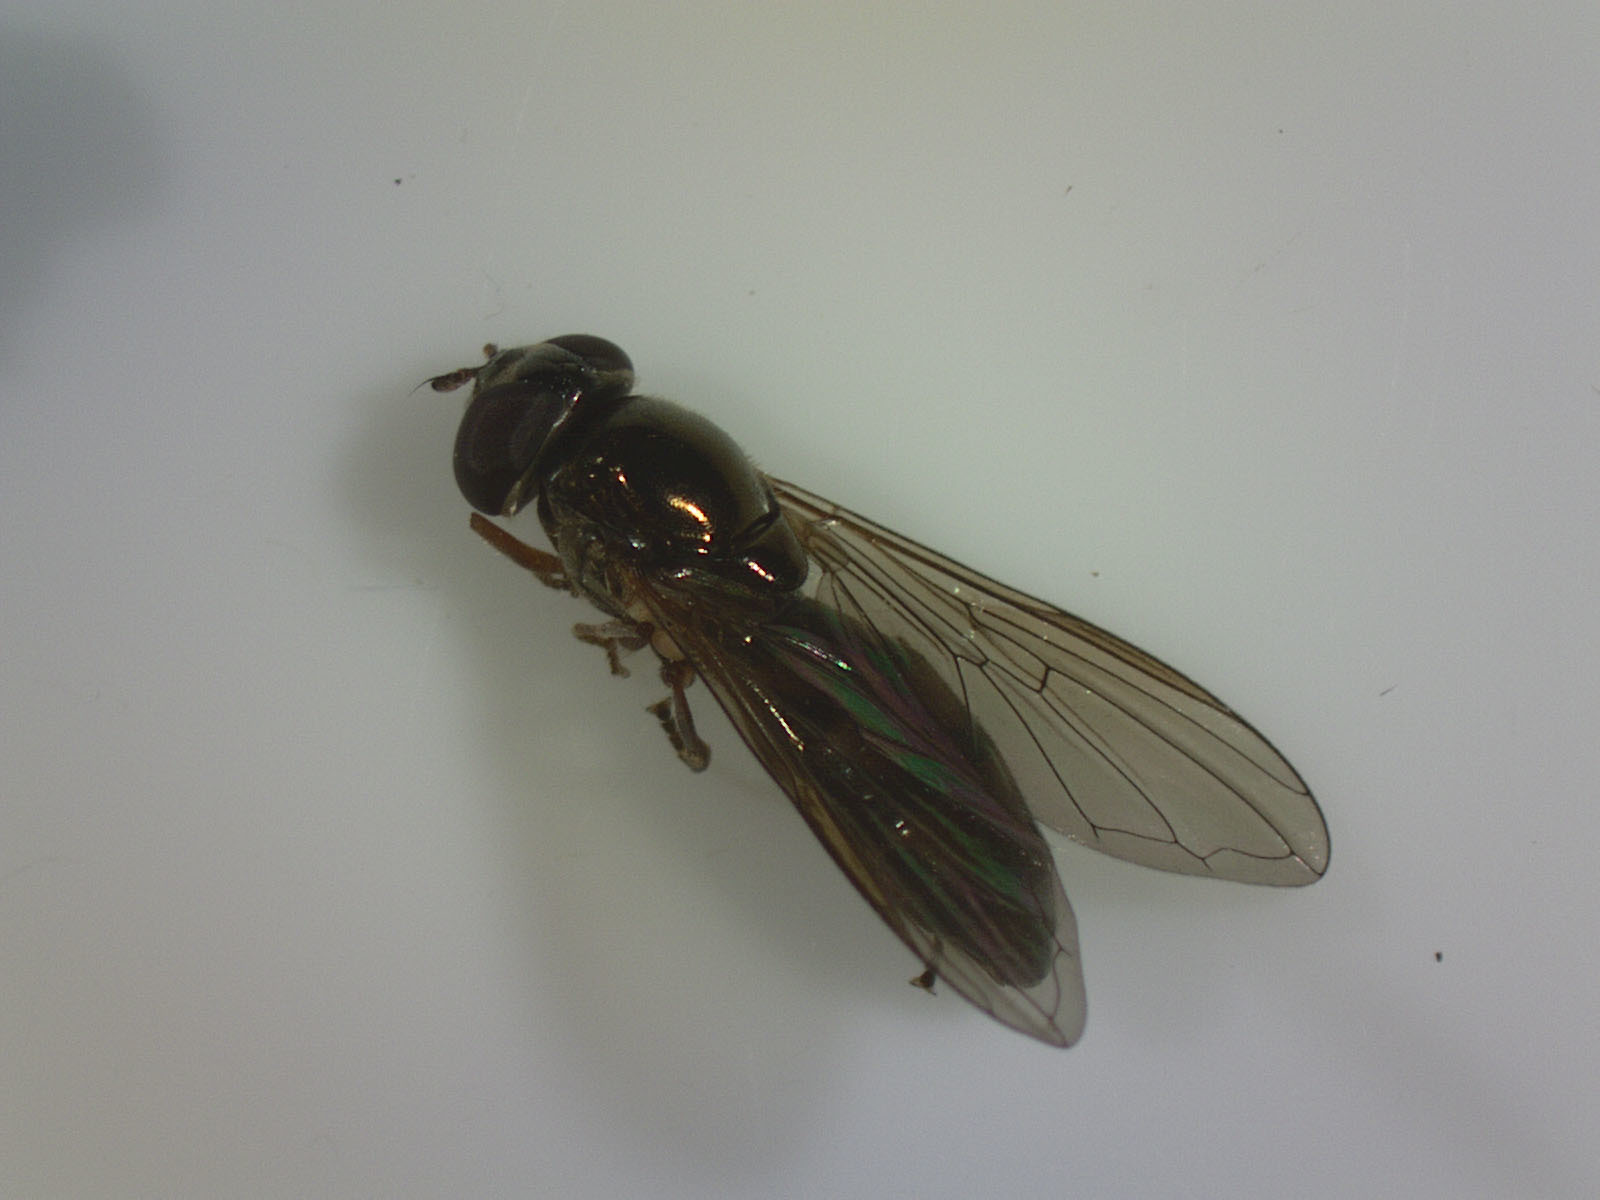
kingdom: Animalia
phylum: Arthropoda
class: Insecta
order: Diptera
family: Syrphidae
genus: Melanostoma
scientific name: Melanostoma fasciatum
